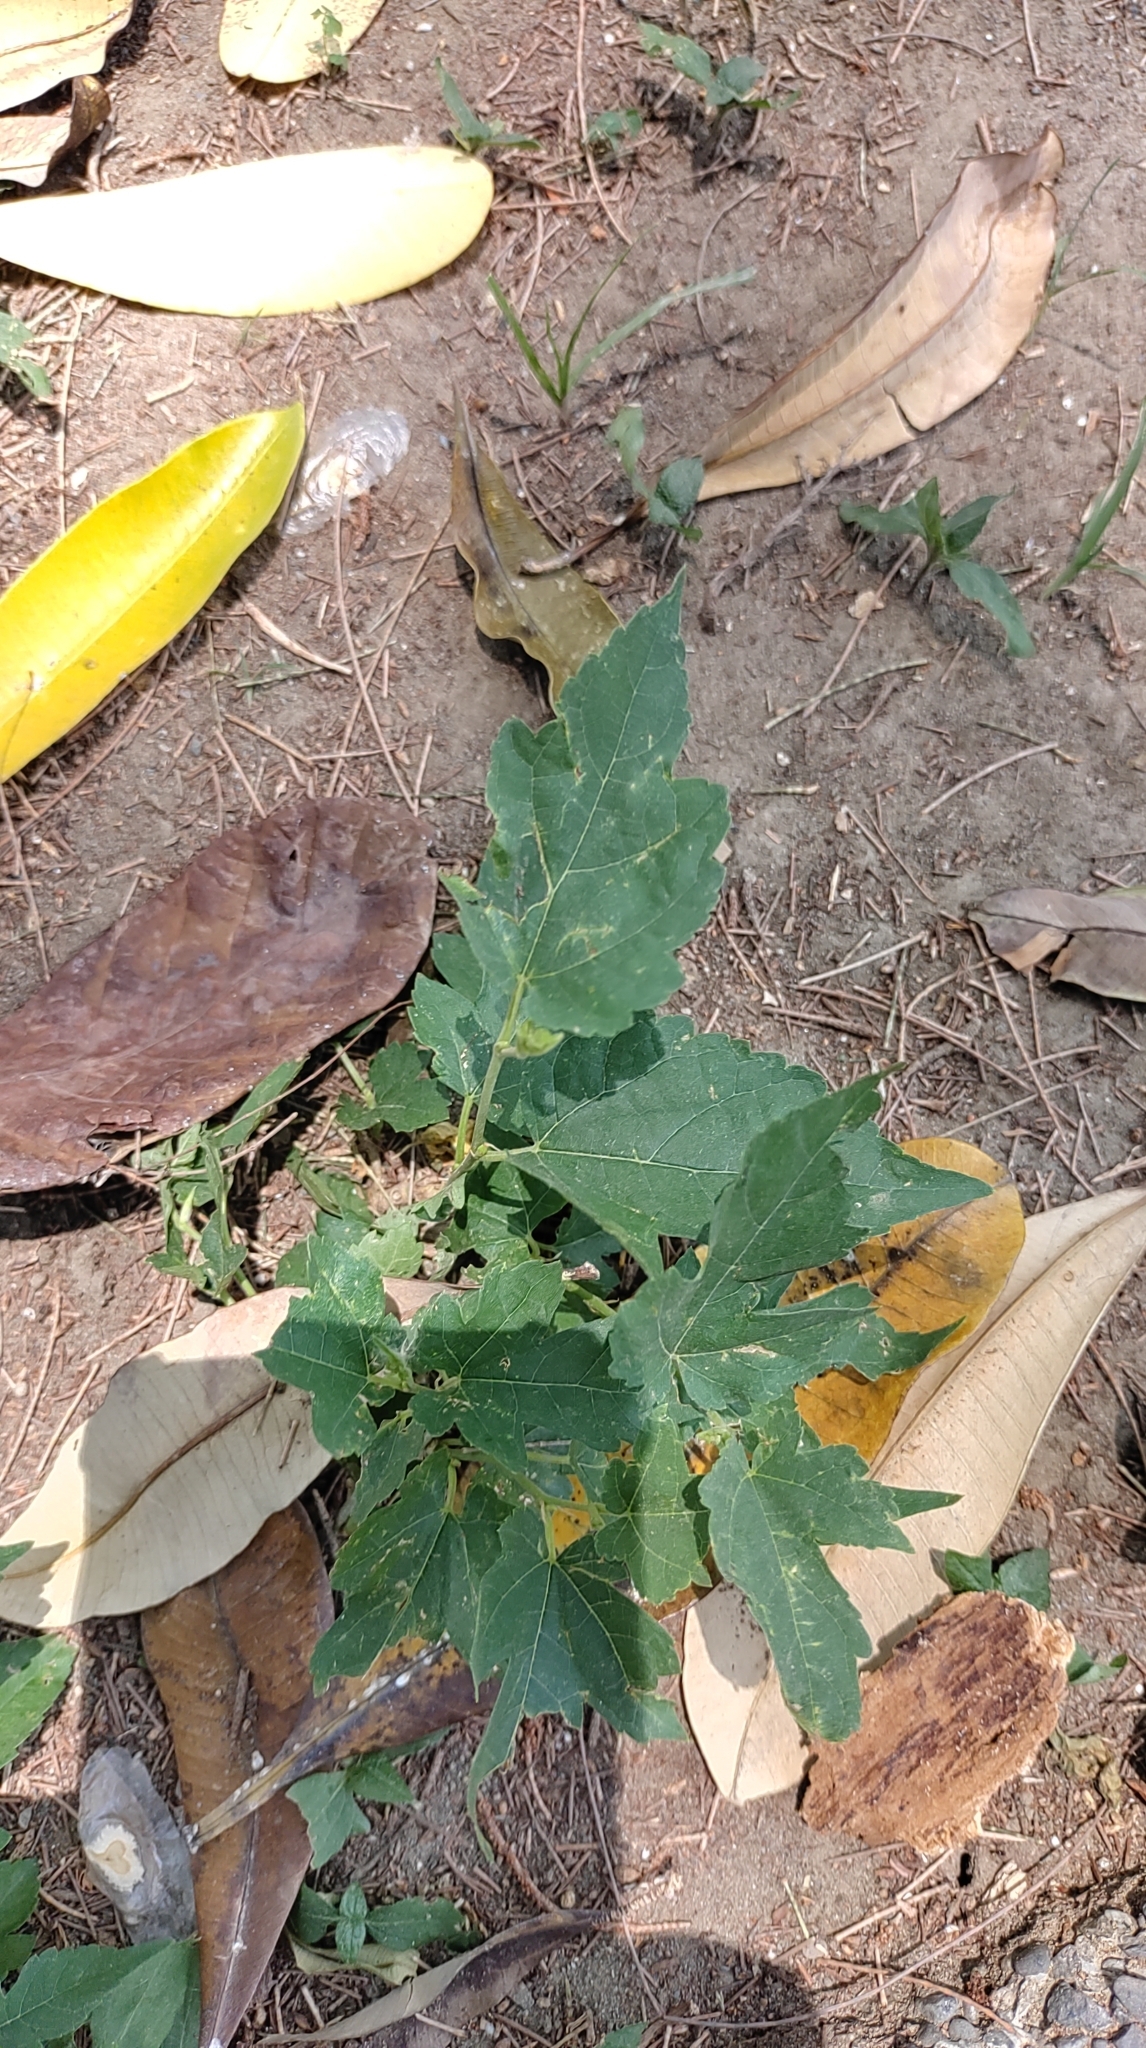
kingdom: Plantae
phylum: Tracheophyta
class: Magnoliopsida
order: Rosales
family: Moraceae
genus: Morus
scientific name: Morus indica
